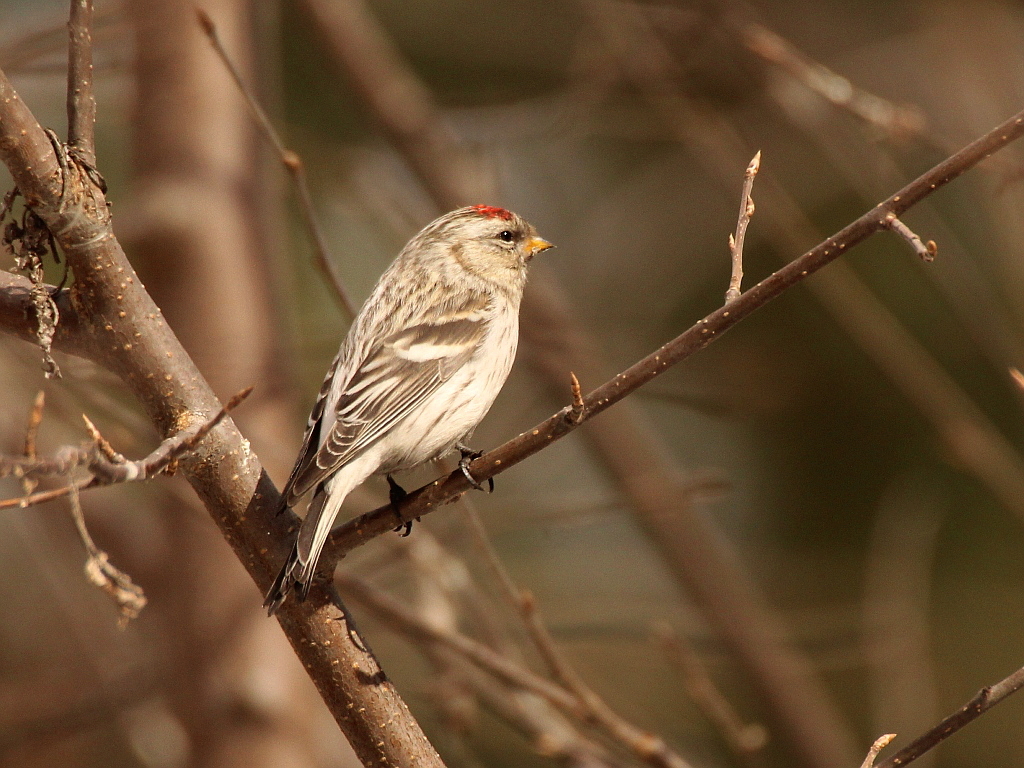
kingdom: Animalia
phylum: Chordata
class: Aves
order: Passeriformes
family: Fringillidae
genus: Acanthis
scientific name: Acanthis hornemanni
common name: Arctic redpoll
